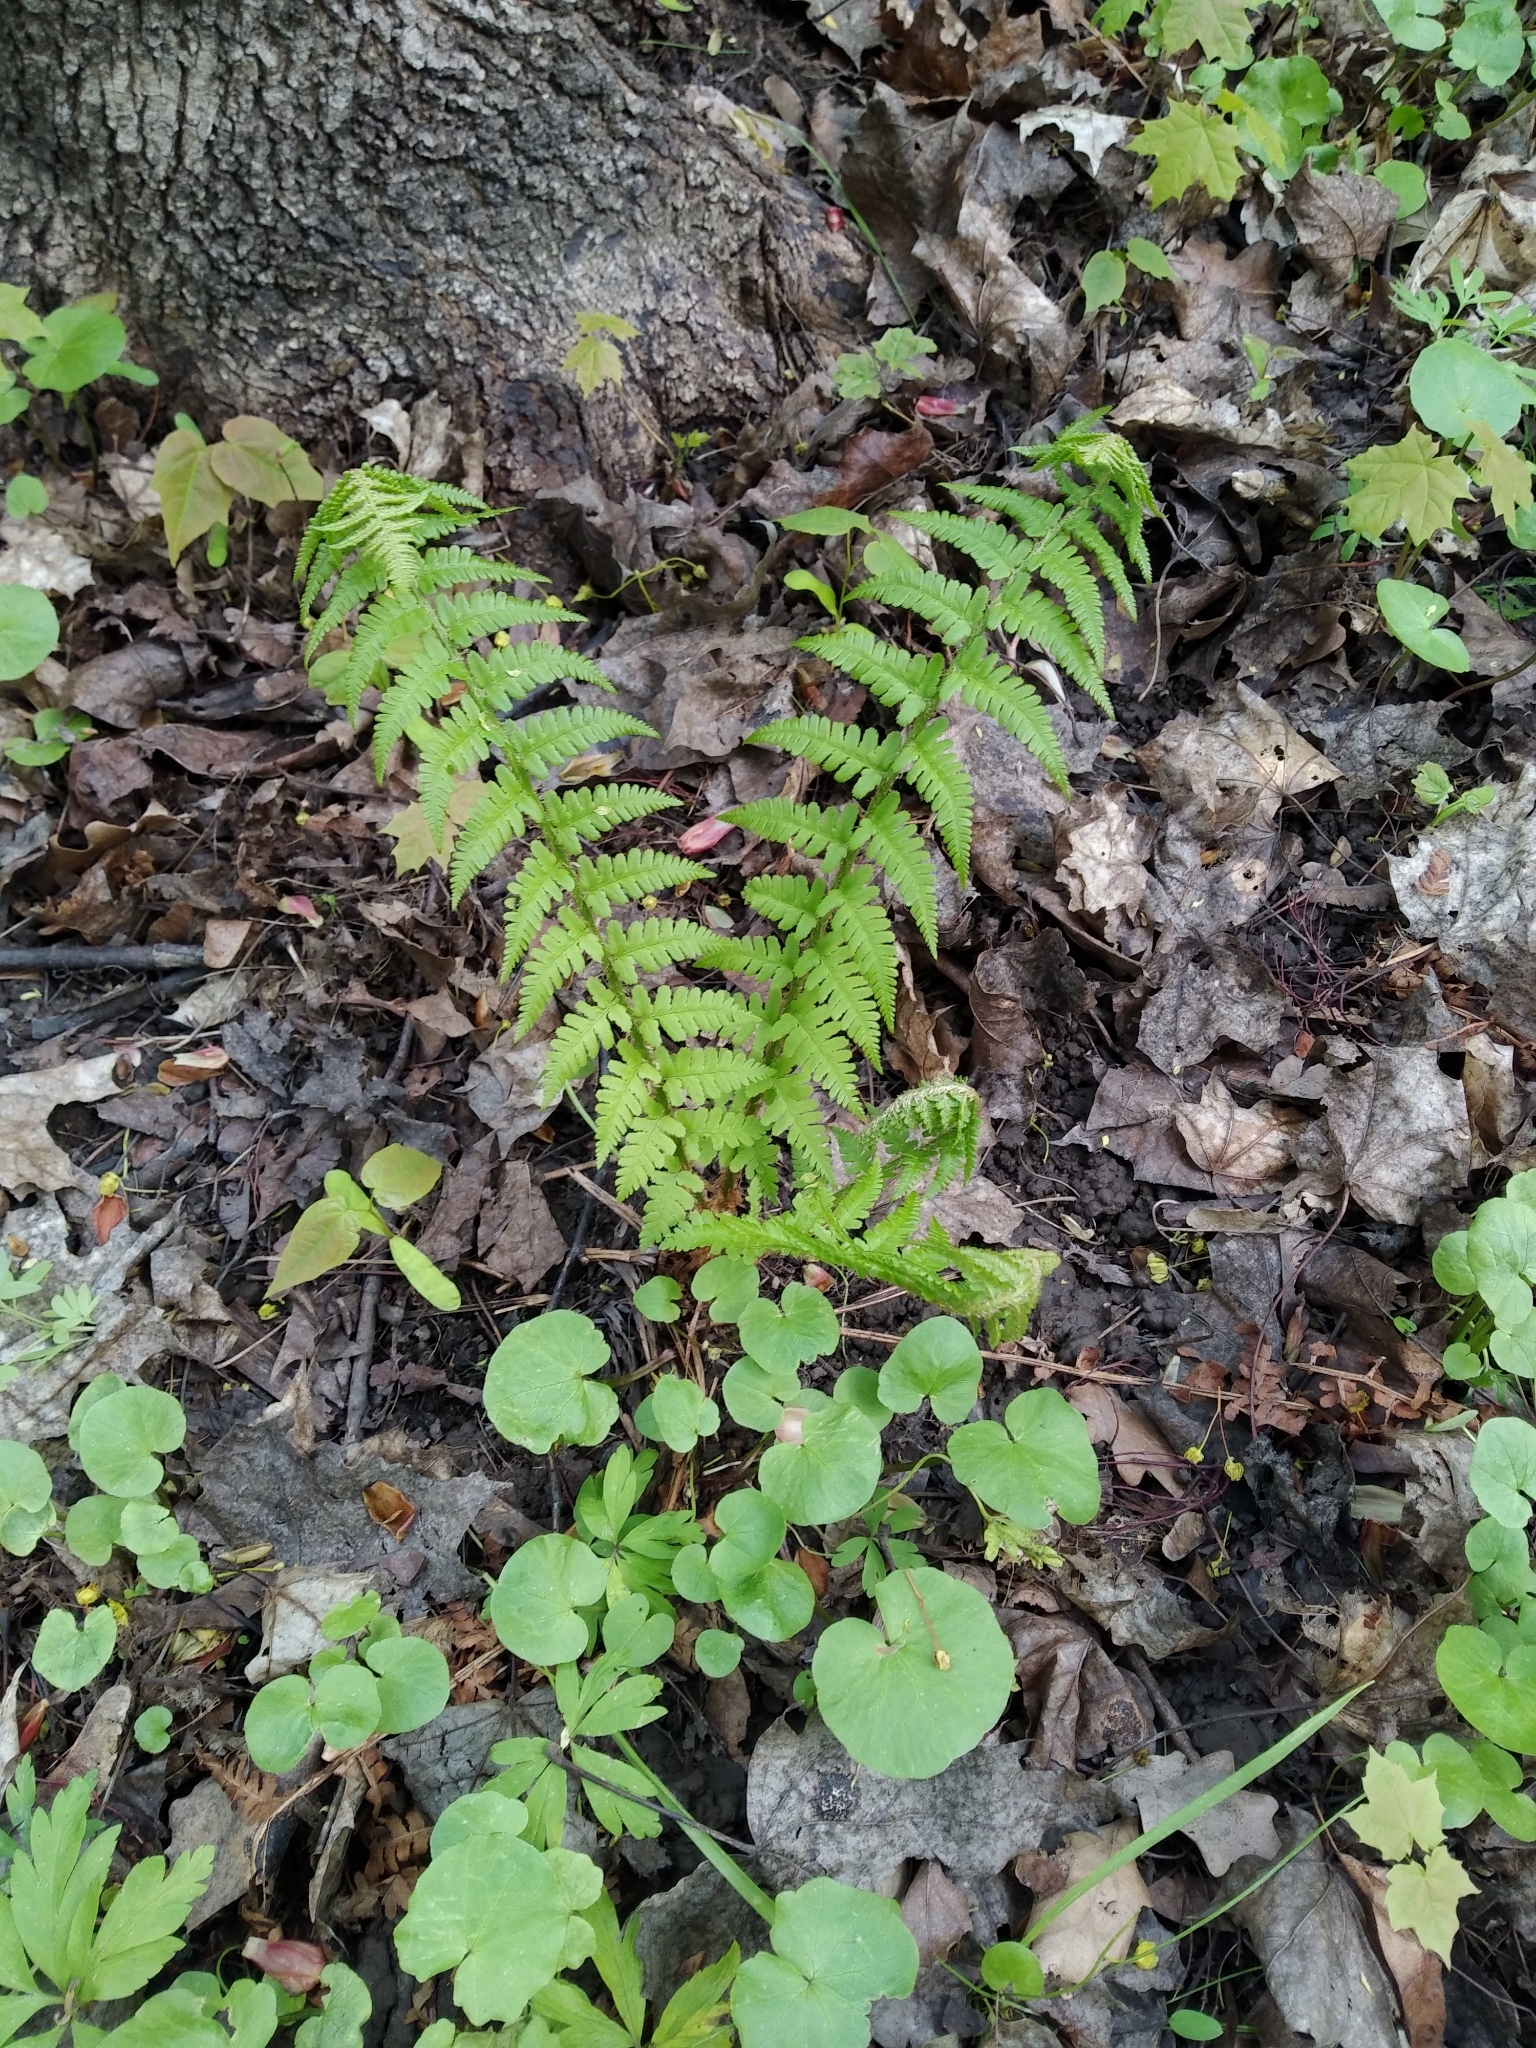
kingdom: Plantae
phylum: Tracheophyta
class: Polypodiopsida
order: Polypodiales
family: Dryopteridaceae
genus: Dryopteris
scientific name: Dryopteris filix-mas
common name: Male fern
